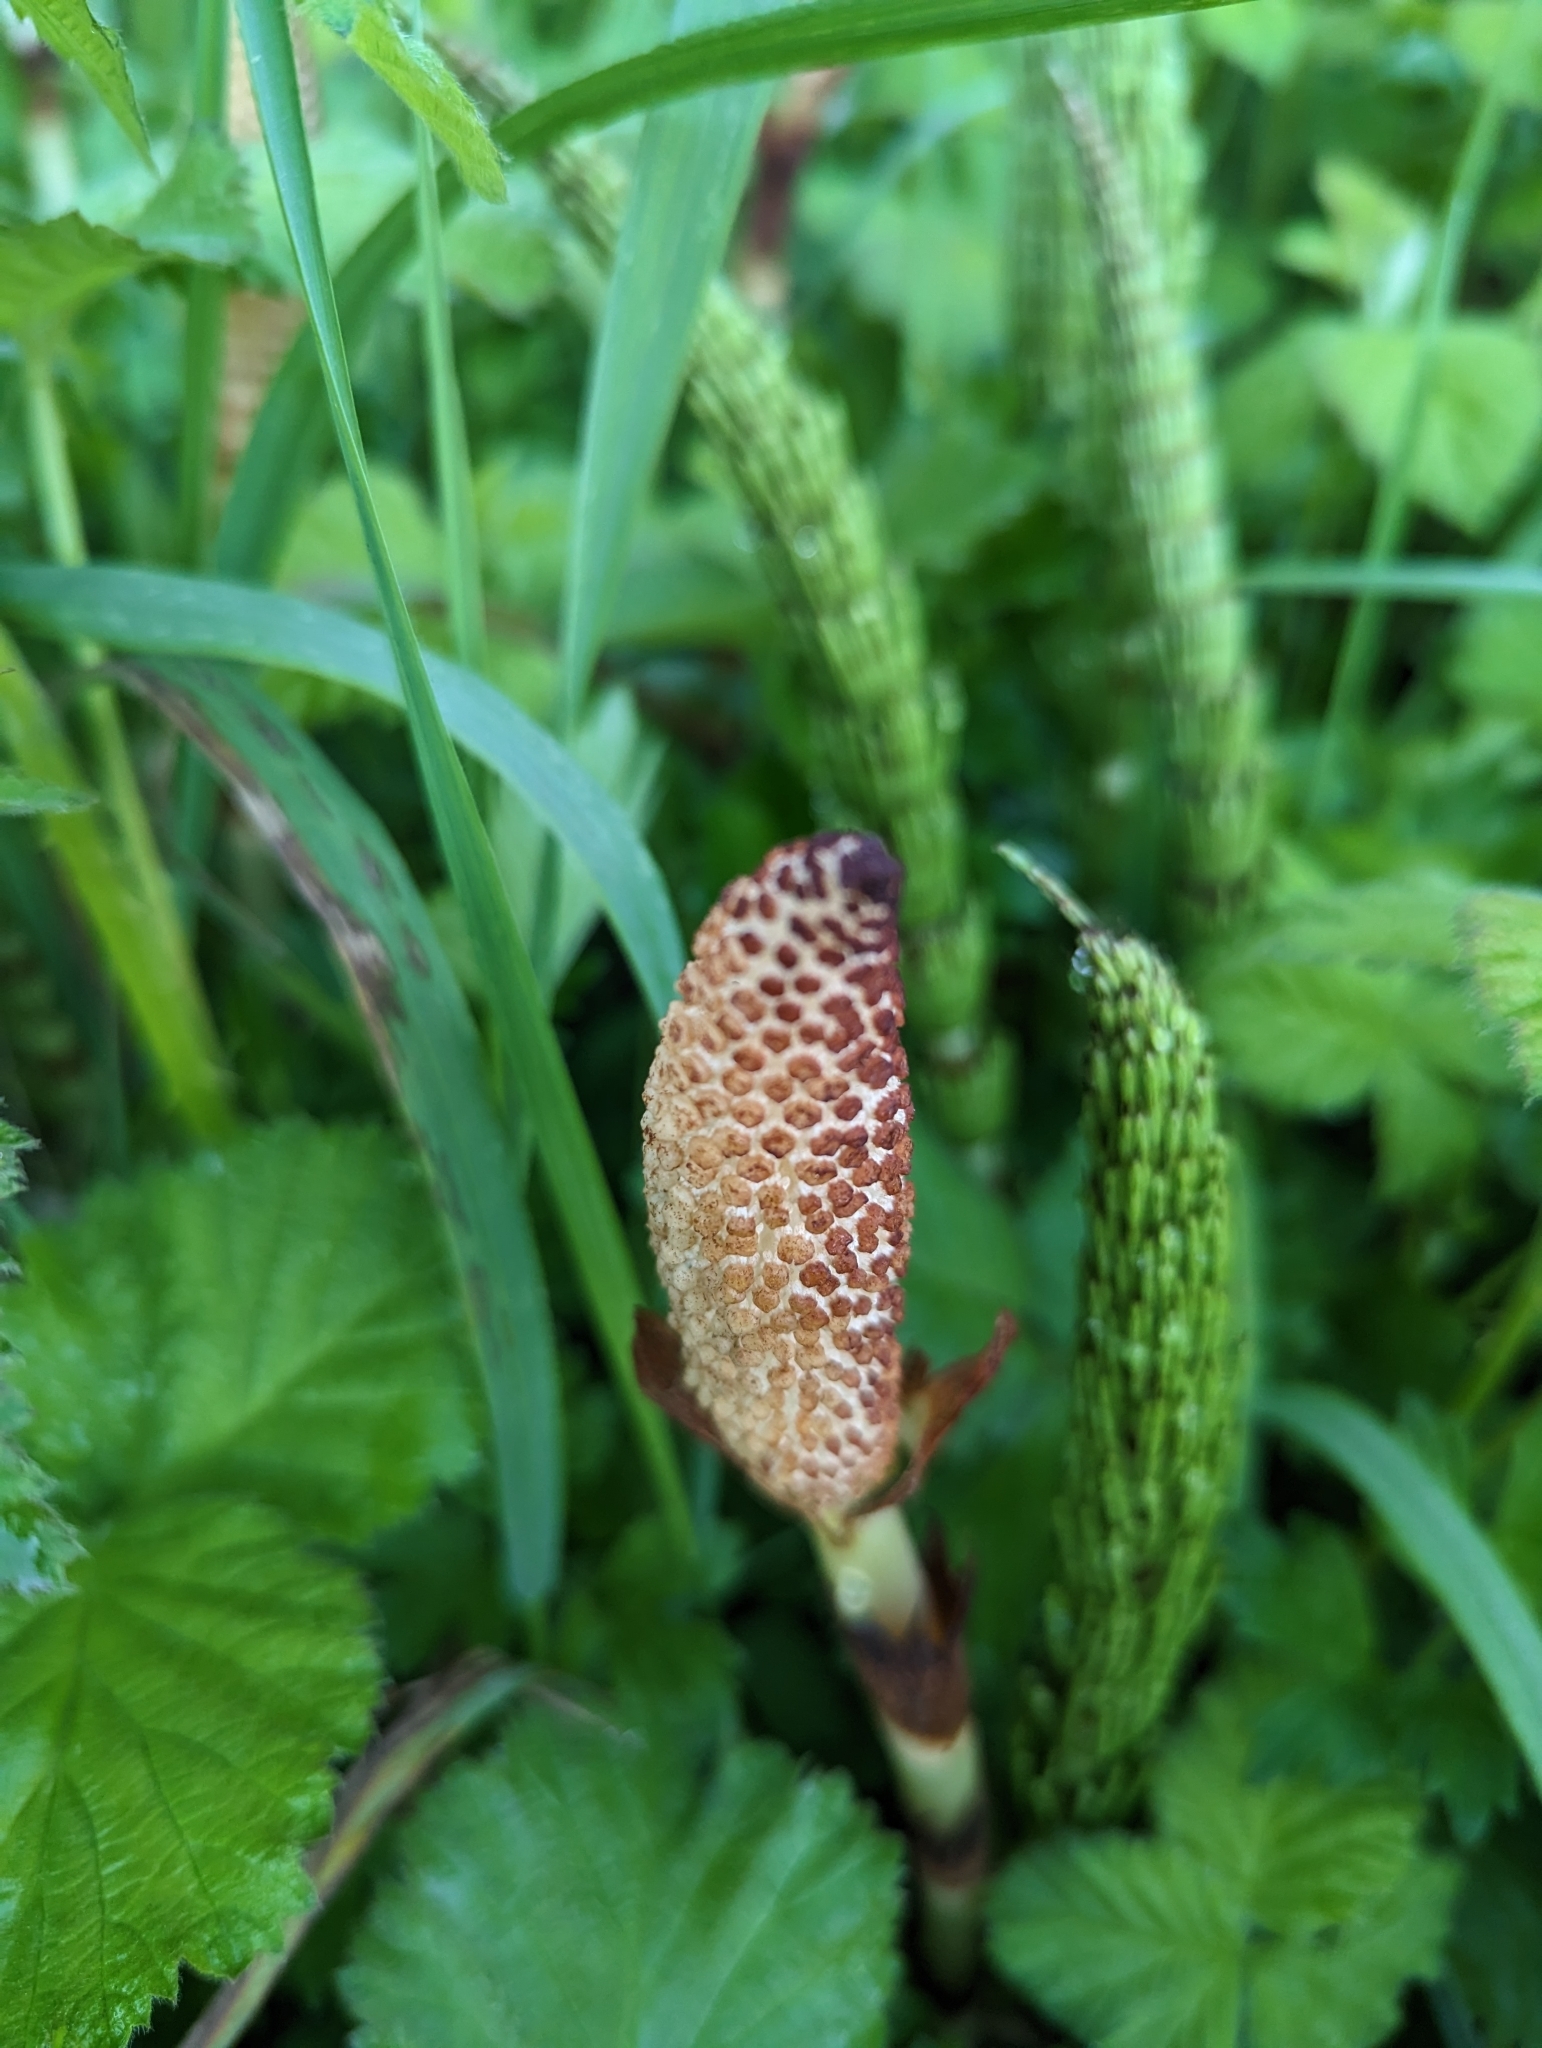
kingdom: Plantae
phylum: Tracheophyta
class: Polypodiopsida
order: Equisetales
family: Equisetaceae
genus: Equisetum
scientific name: Equisetum braunii
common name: Braun's horsetail
